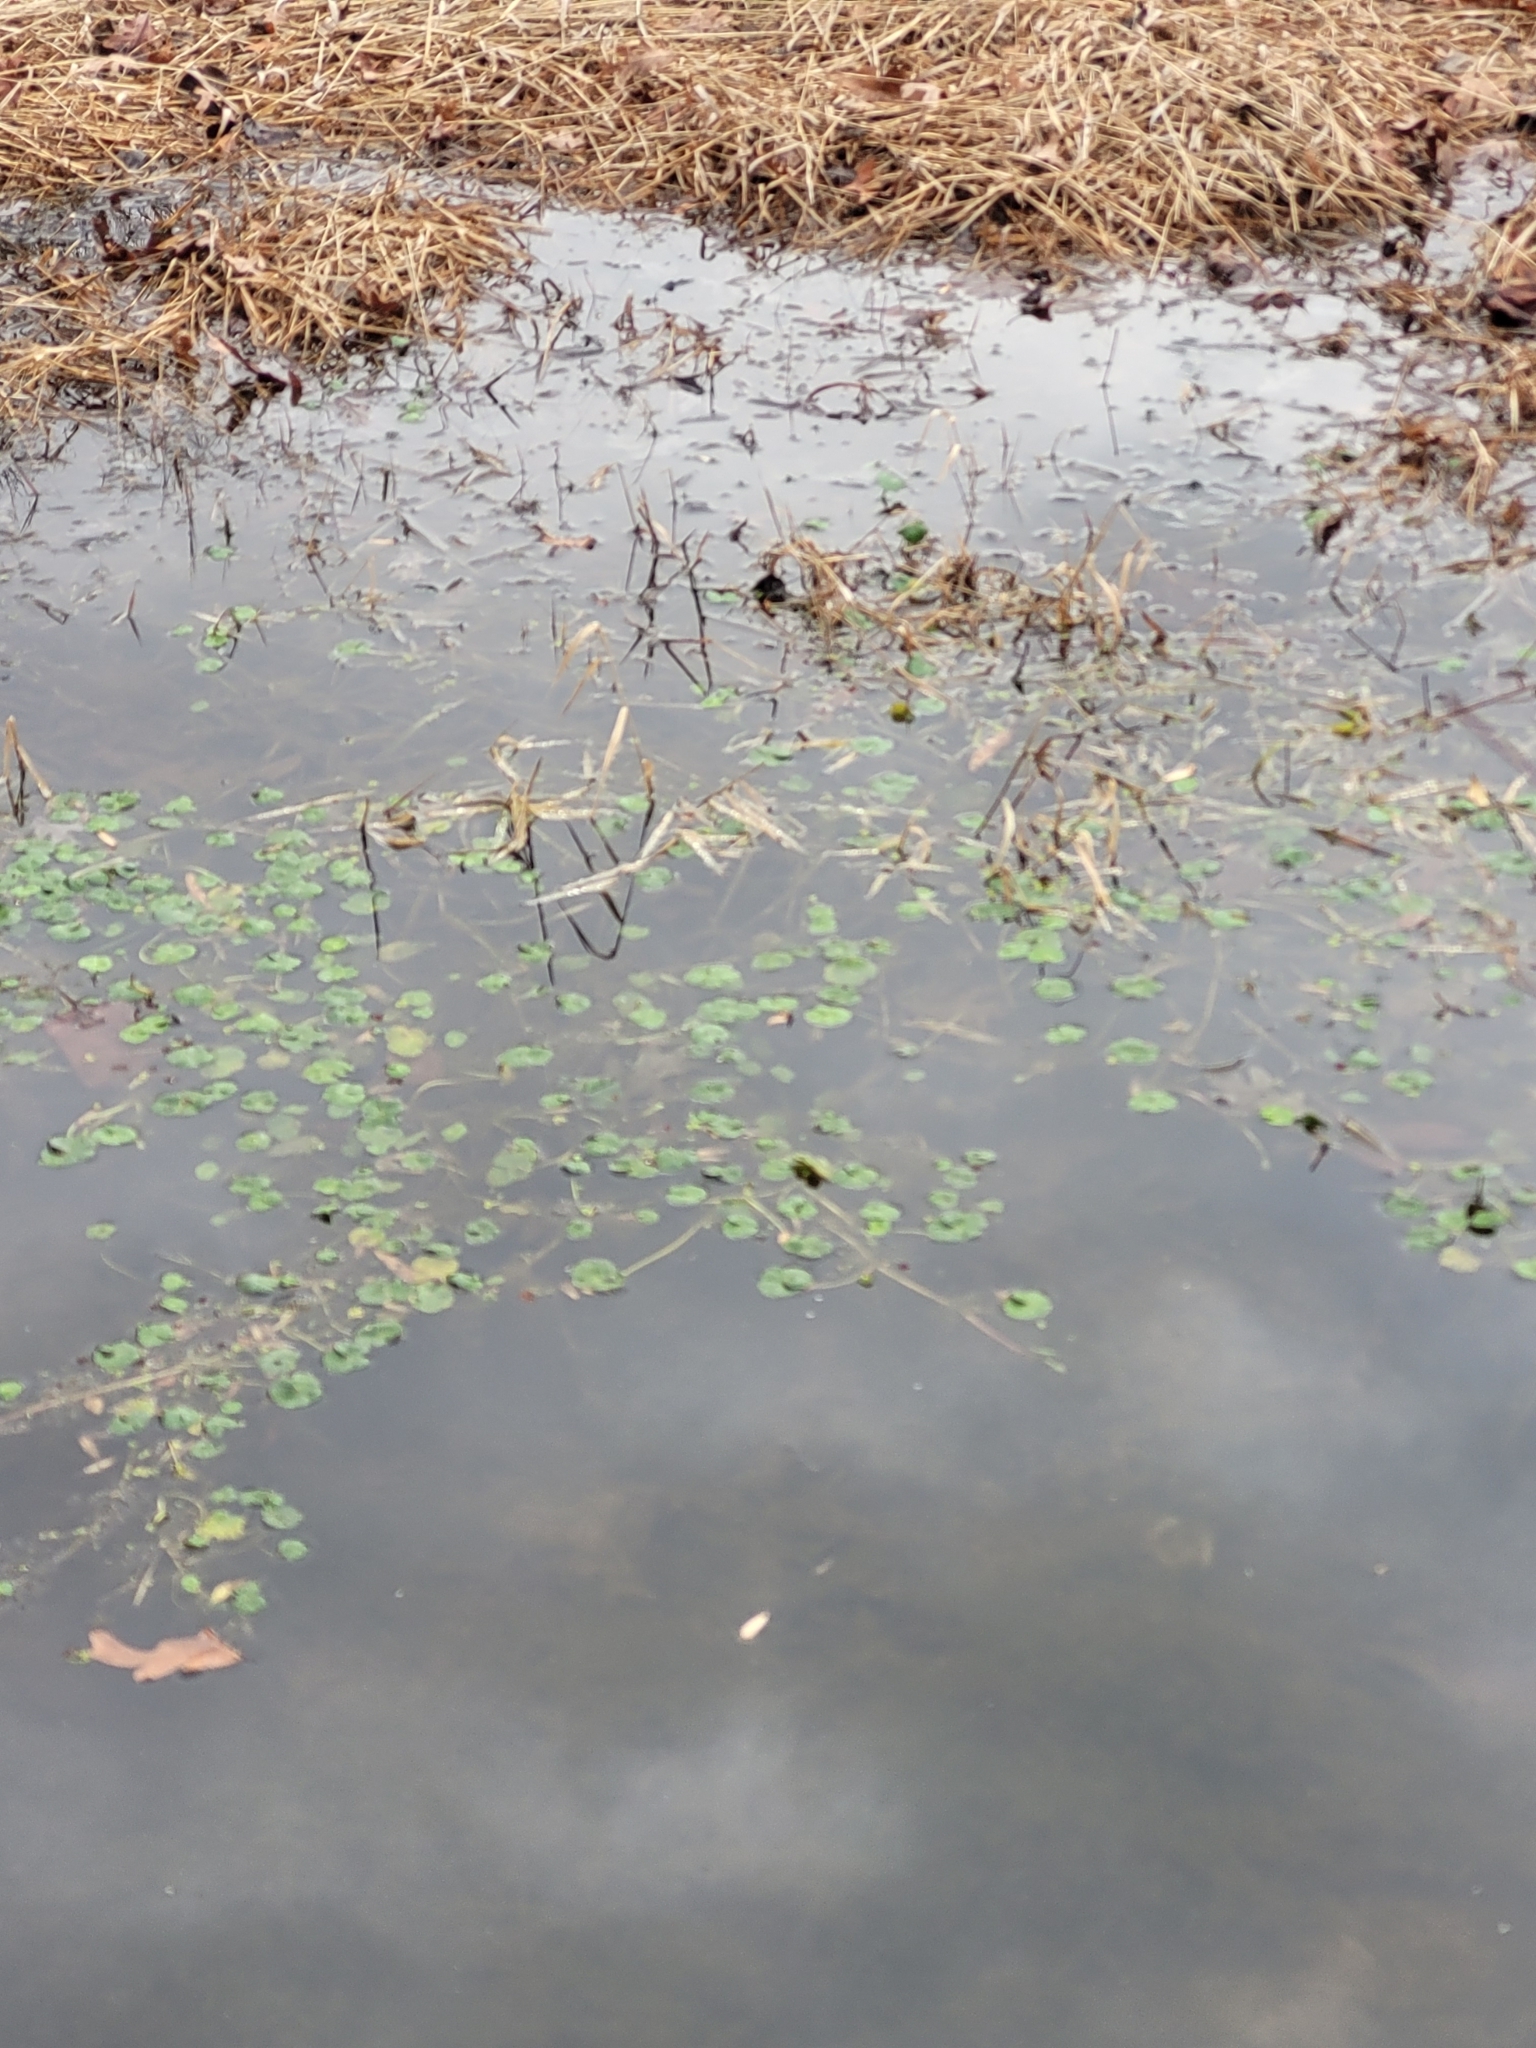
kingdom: Plantae
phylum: Tracheophyta
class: Magnoliopsida
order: Apiales
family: Araliaceae
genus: Hydrocotyle
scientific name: Hydrocotyle ranunculoides
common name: Floating pennywort
